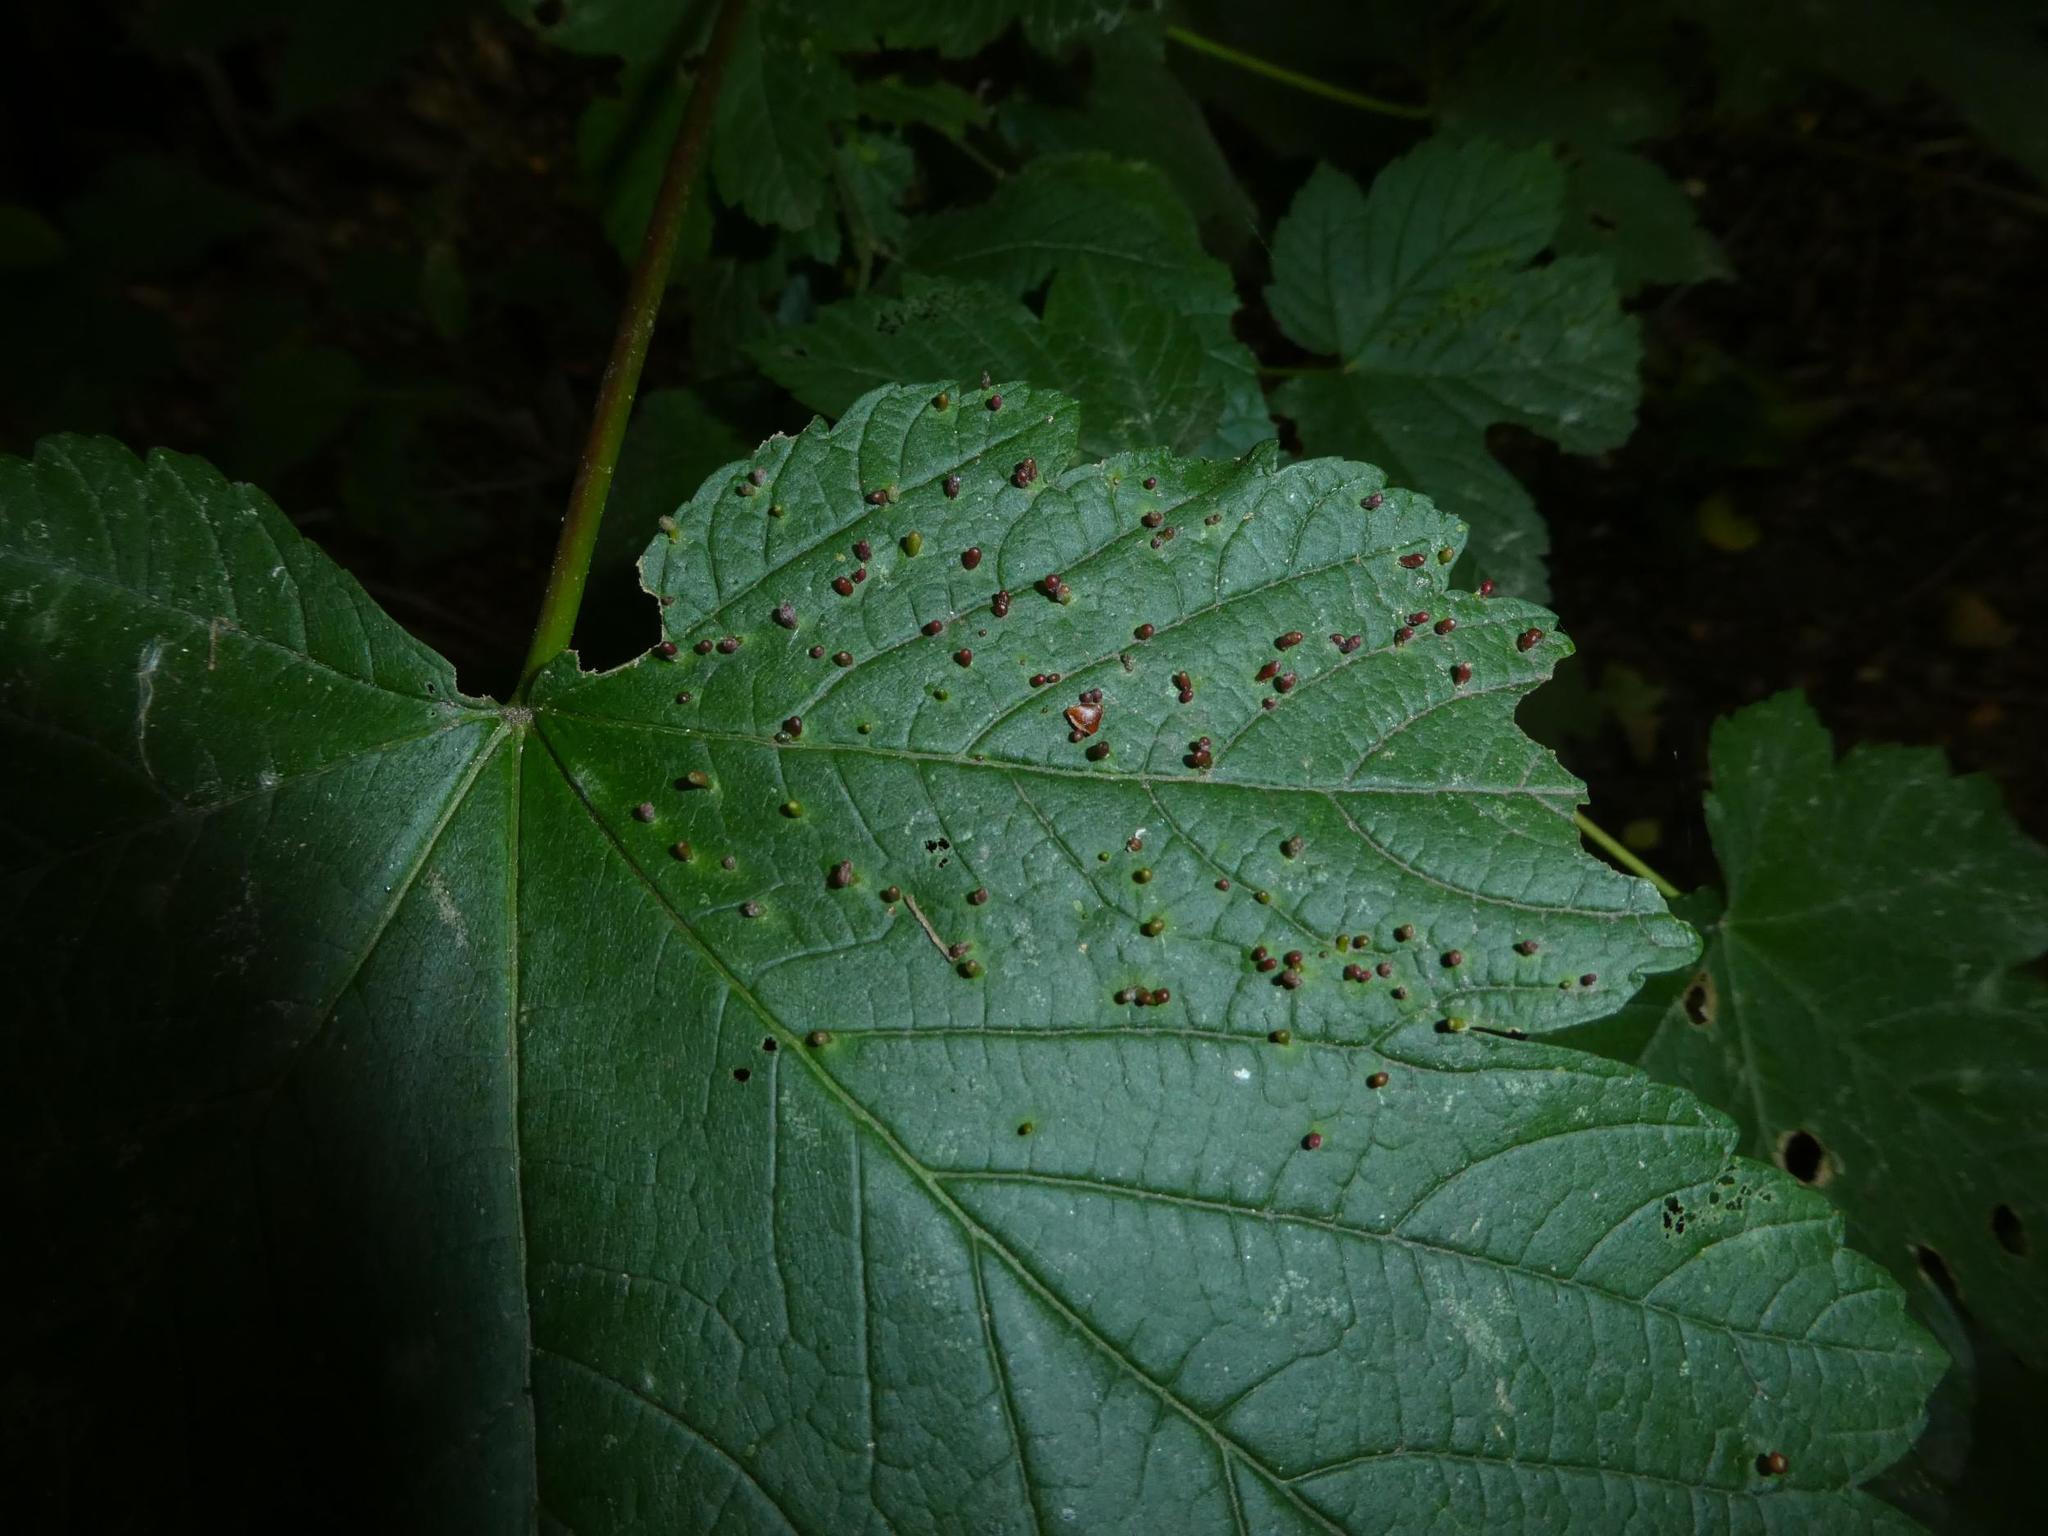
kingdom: Animalia
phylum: Arthropoda
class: Arachnida
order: Trombidiformes
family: Eriophyidae
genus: Aceria
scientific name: Aceria cephaloneus
